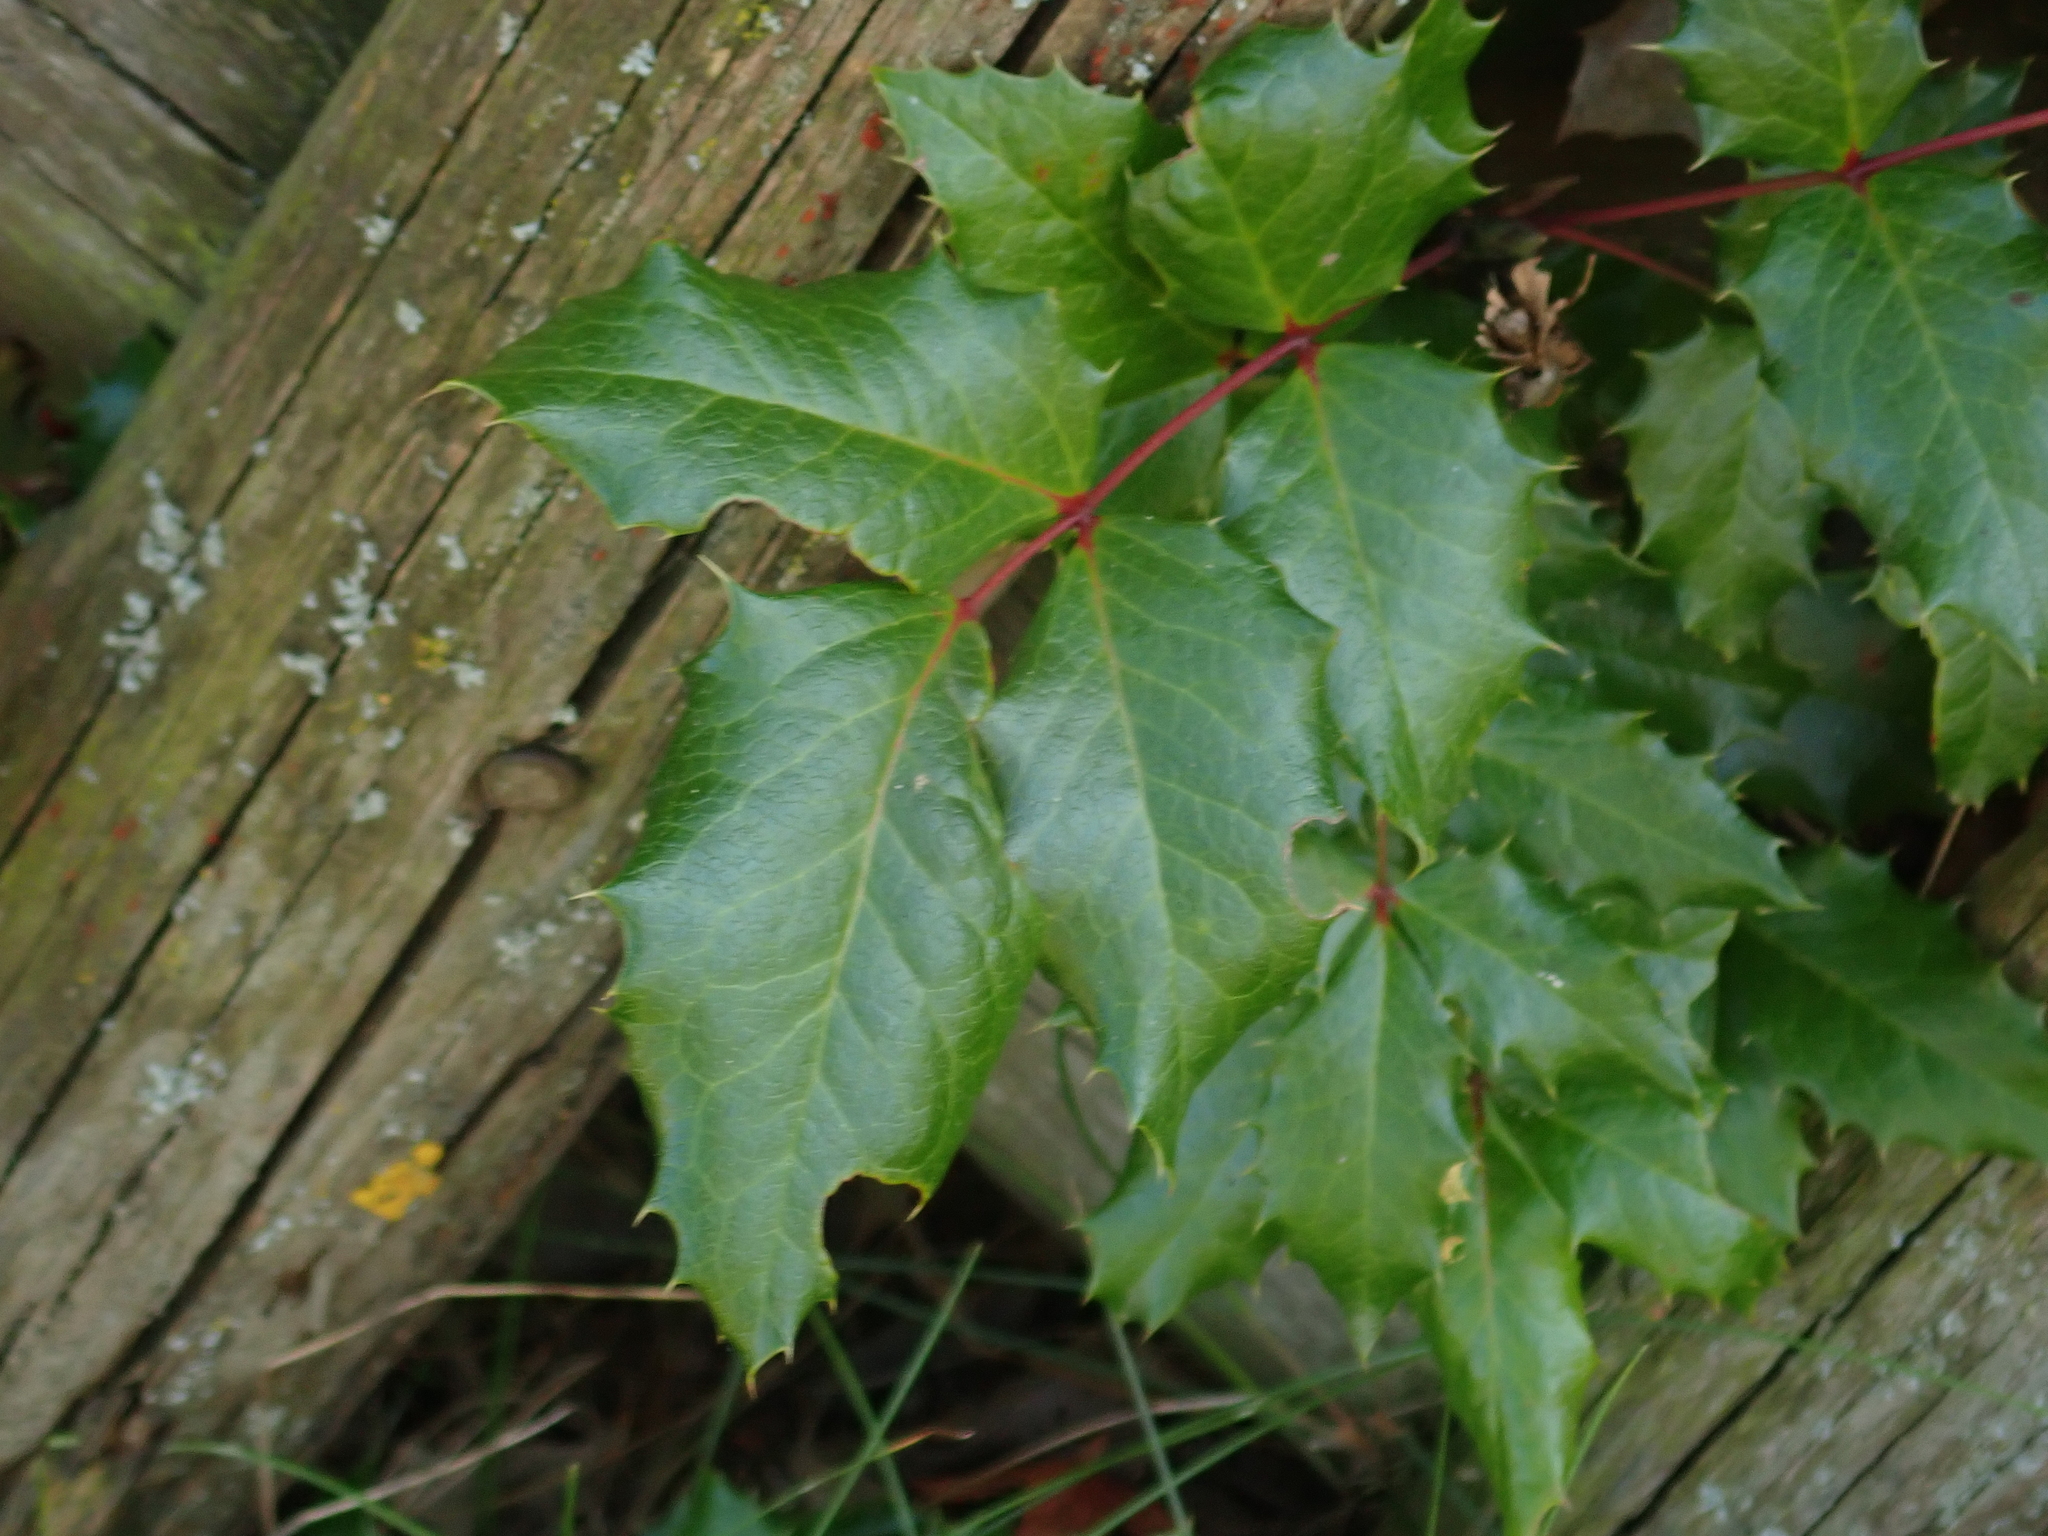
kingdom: Plantae
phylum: Tracheophyta
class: Magnoliopsida
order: Ranunculales
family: Berberidaceae
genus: Mahonia
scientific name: Mahonia aquifolium
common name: Oregon-grape
